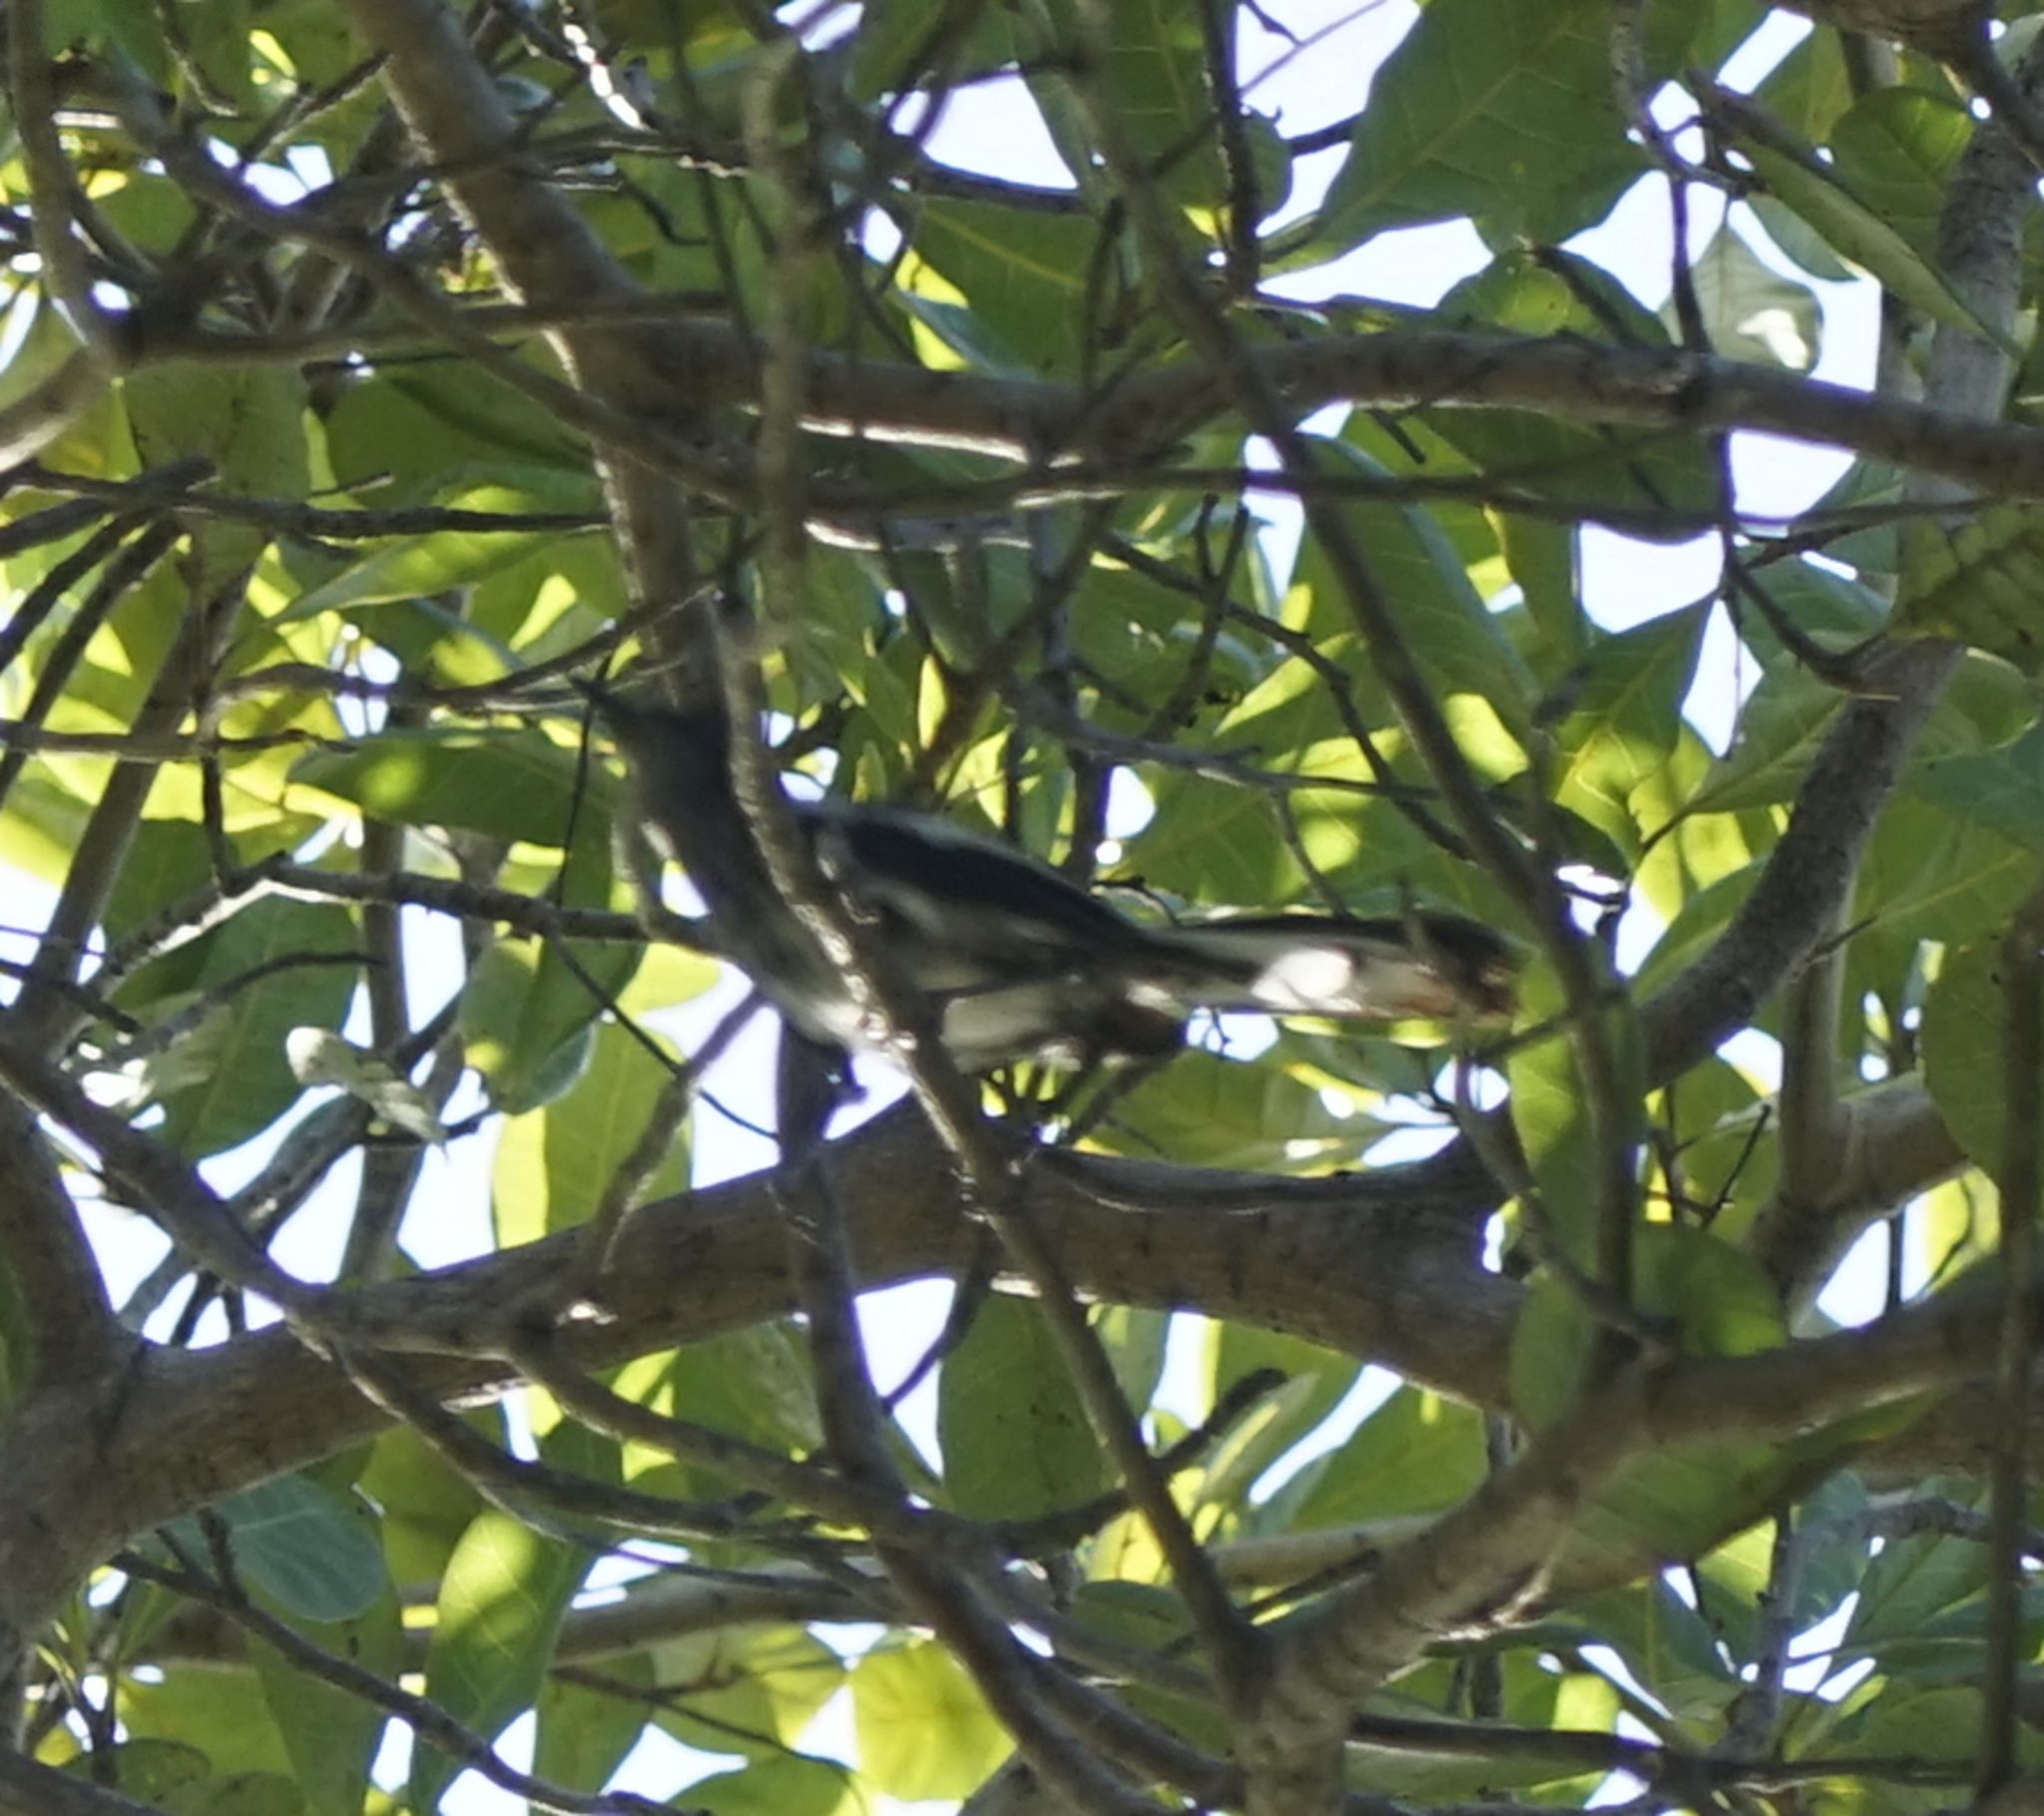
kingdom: Animalia
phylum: Chordata
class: Aves
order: Passeriformes
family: Muscicapidae
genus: Copsychus
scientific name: Copsychus saularis
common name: Oriental magpie-robin
